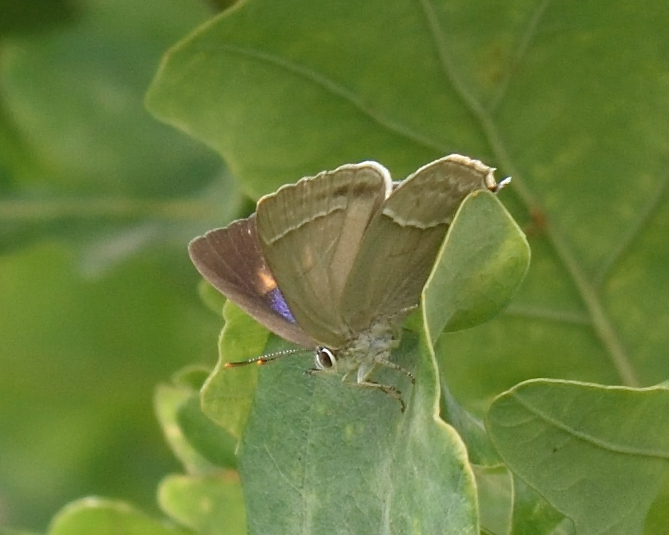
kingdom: Animalia
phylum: Arthropoda
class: Insecta
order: Lepidoptera
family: Lycaenidae
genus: Quercusia
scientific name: Quercusia quercus
